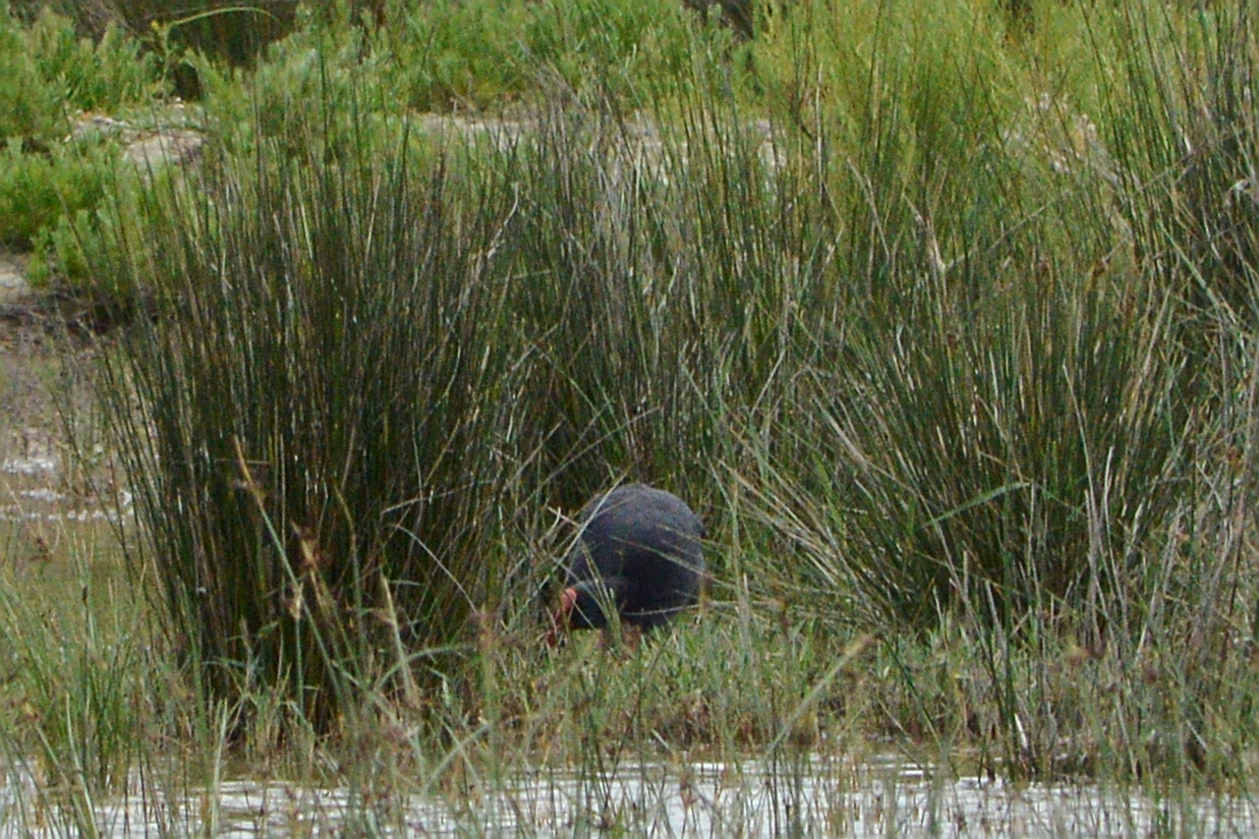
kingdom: Animalia
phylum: Chordata
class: Aves
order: Gruiformes
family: Rallidae
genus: Porphyrio
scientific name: Porphyrio porphyrio
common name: Purple swamphen
